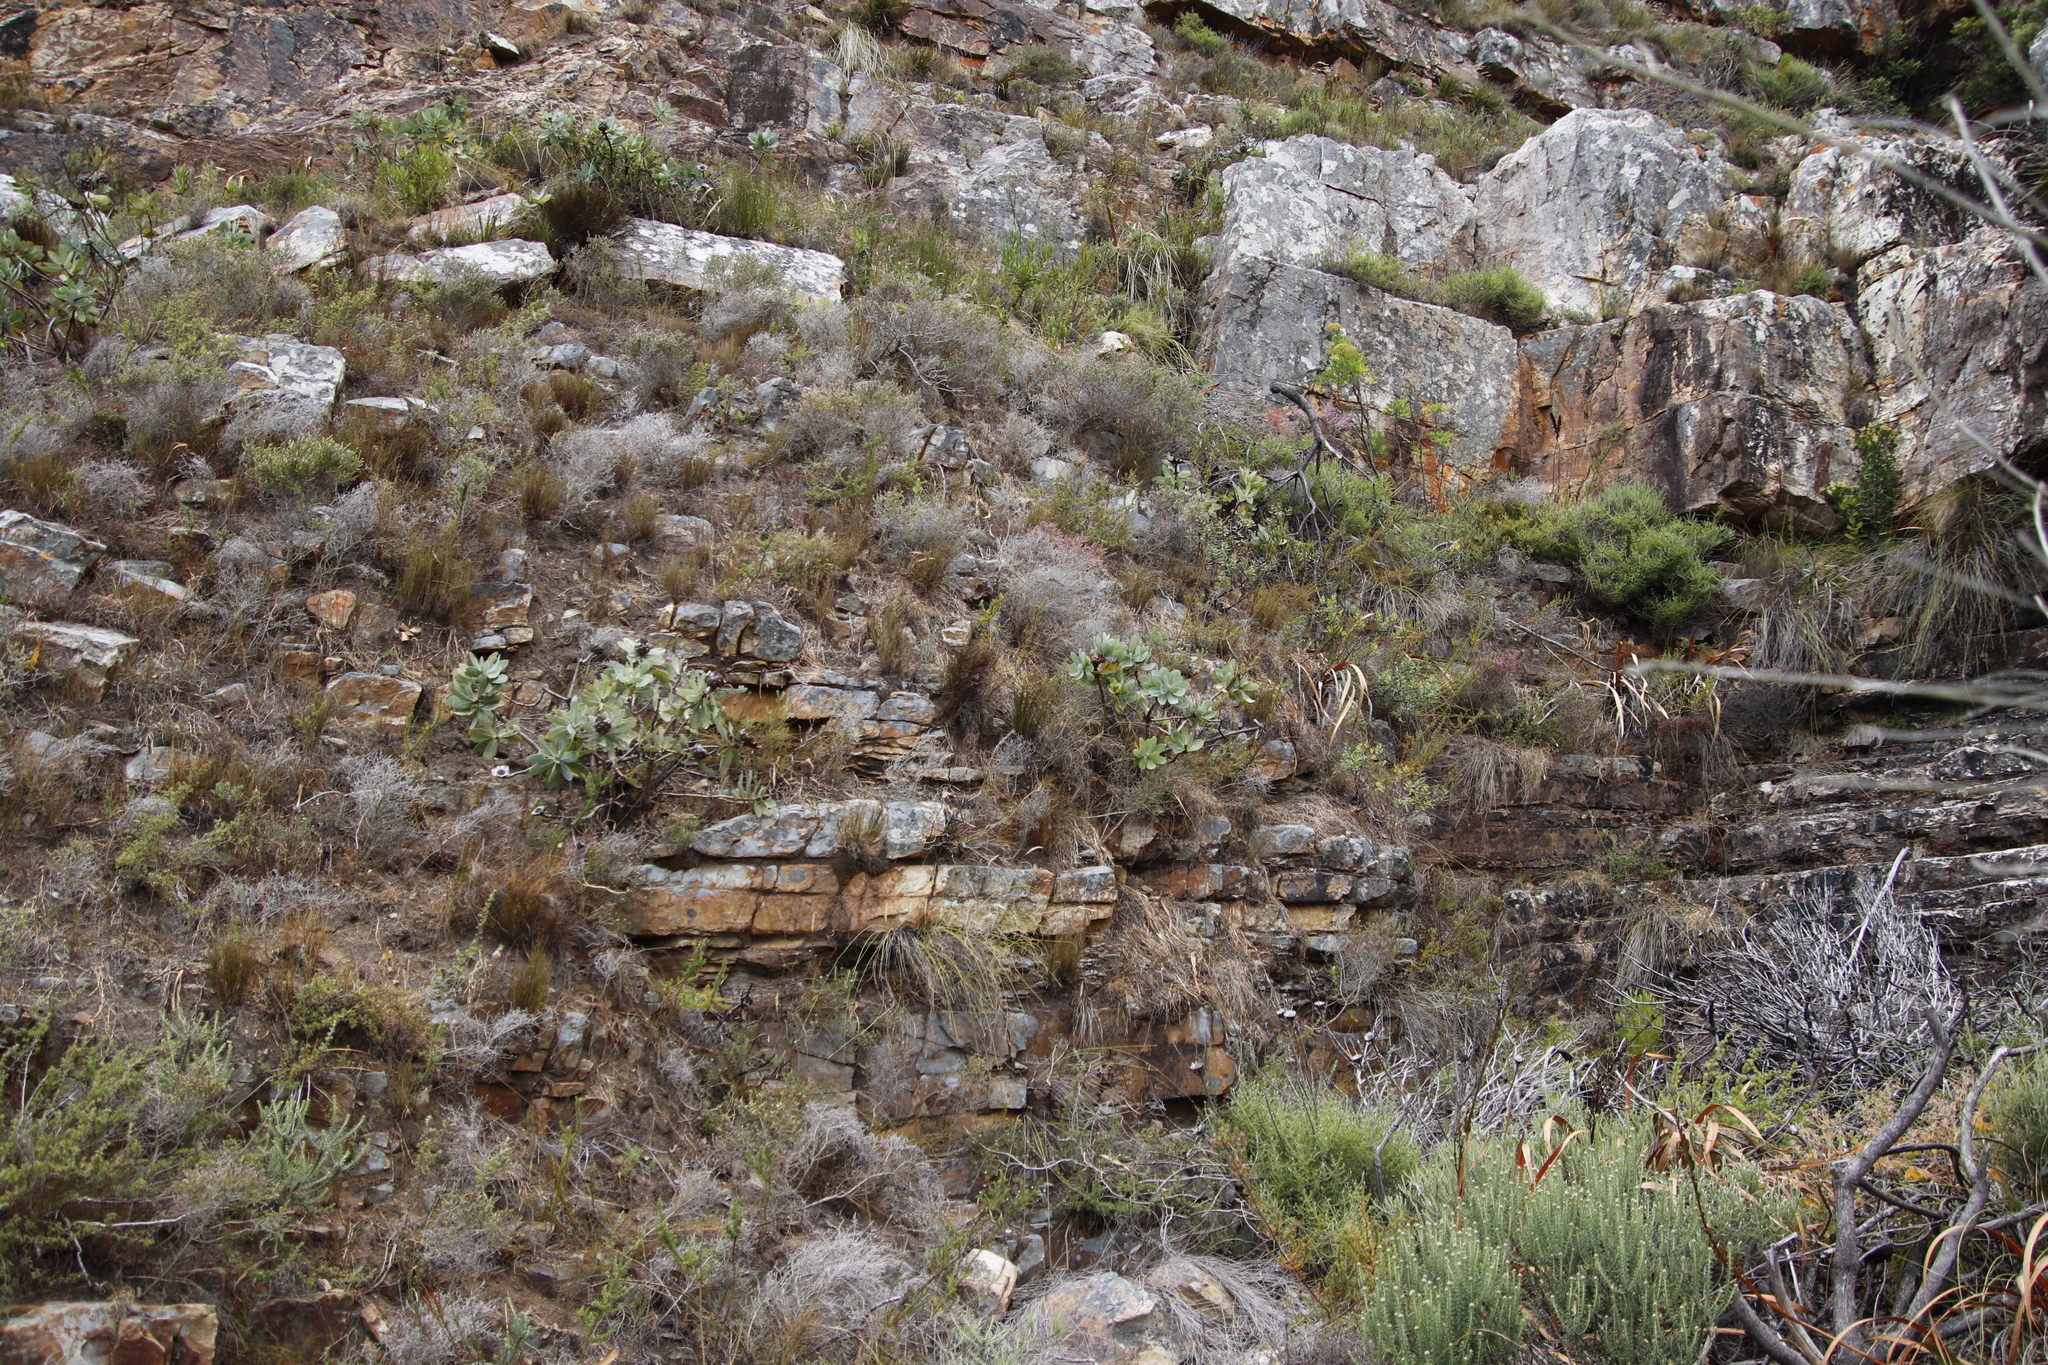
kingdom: Plantae
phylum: Tracheophyta
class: Magnoliopsida
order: Proteales
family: Proteaceae
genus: Protea
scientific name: Protea nitida
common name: Tree protea
